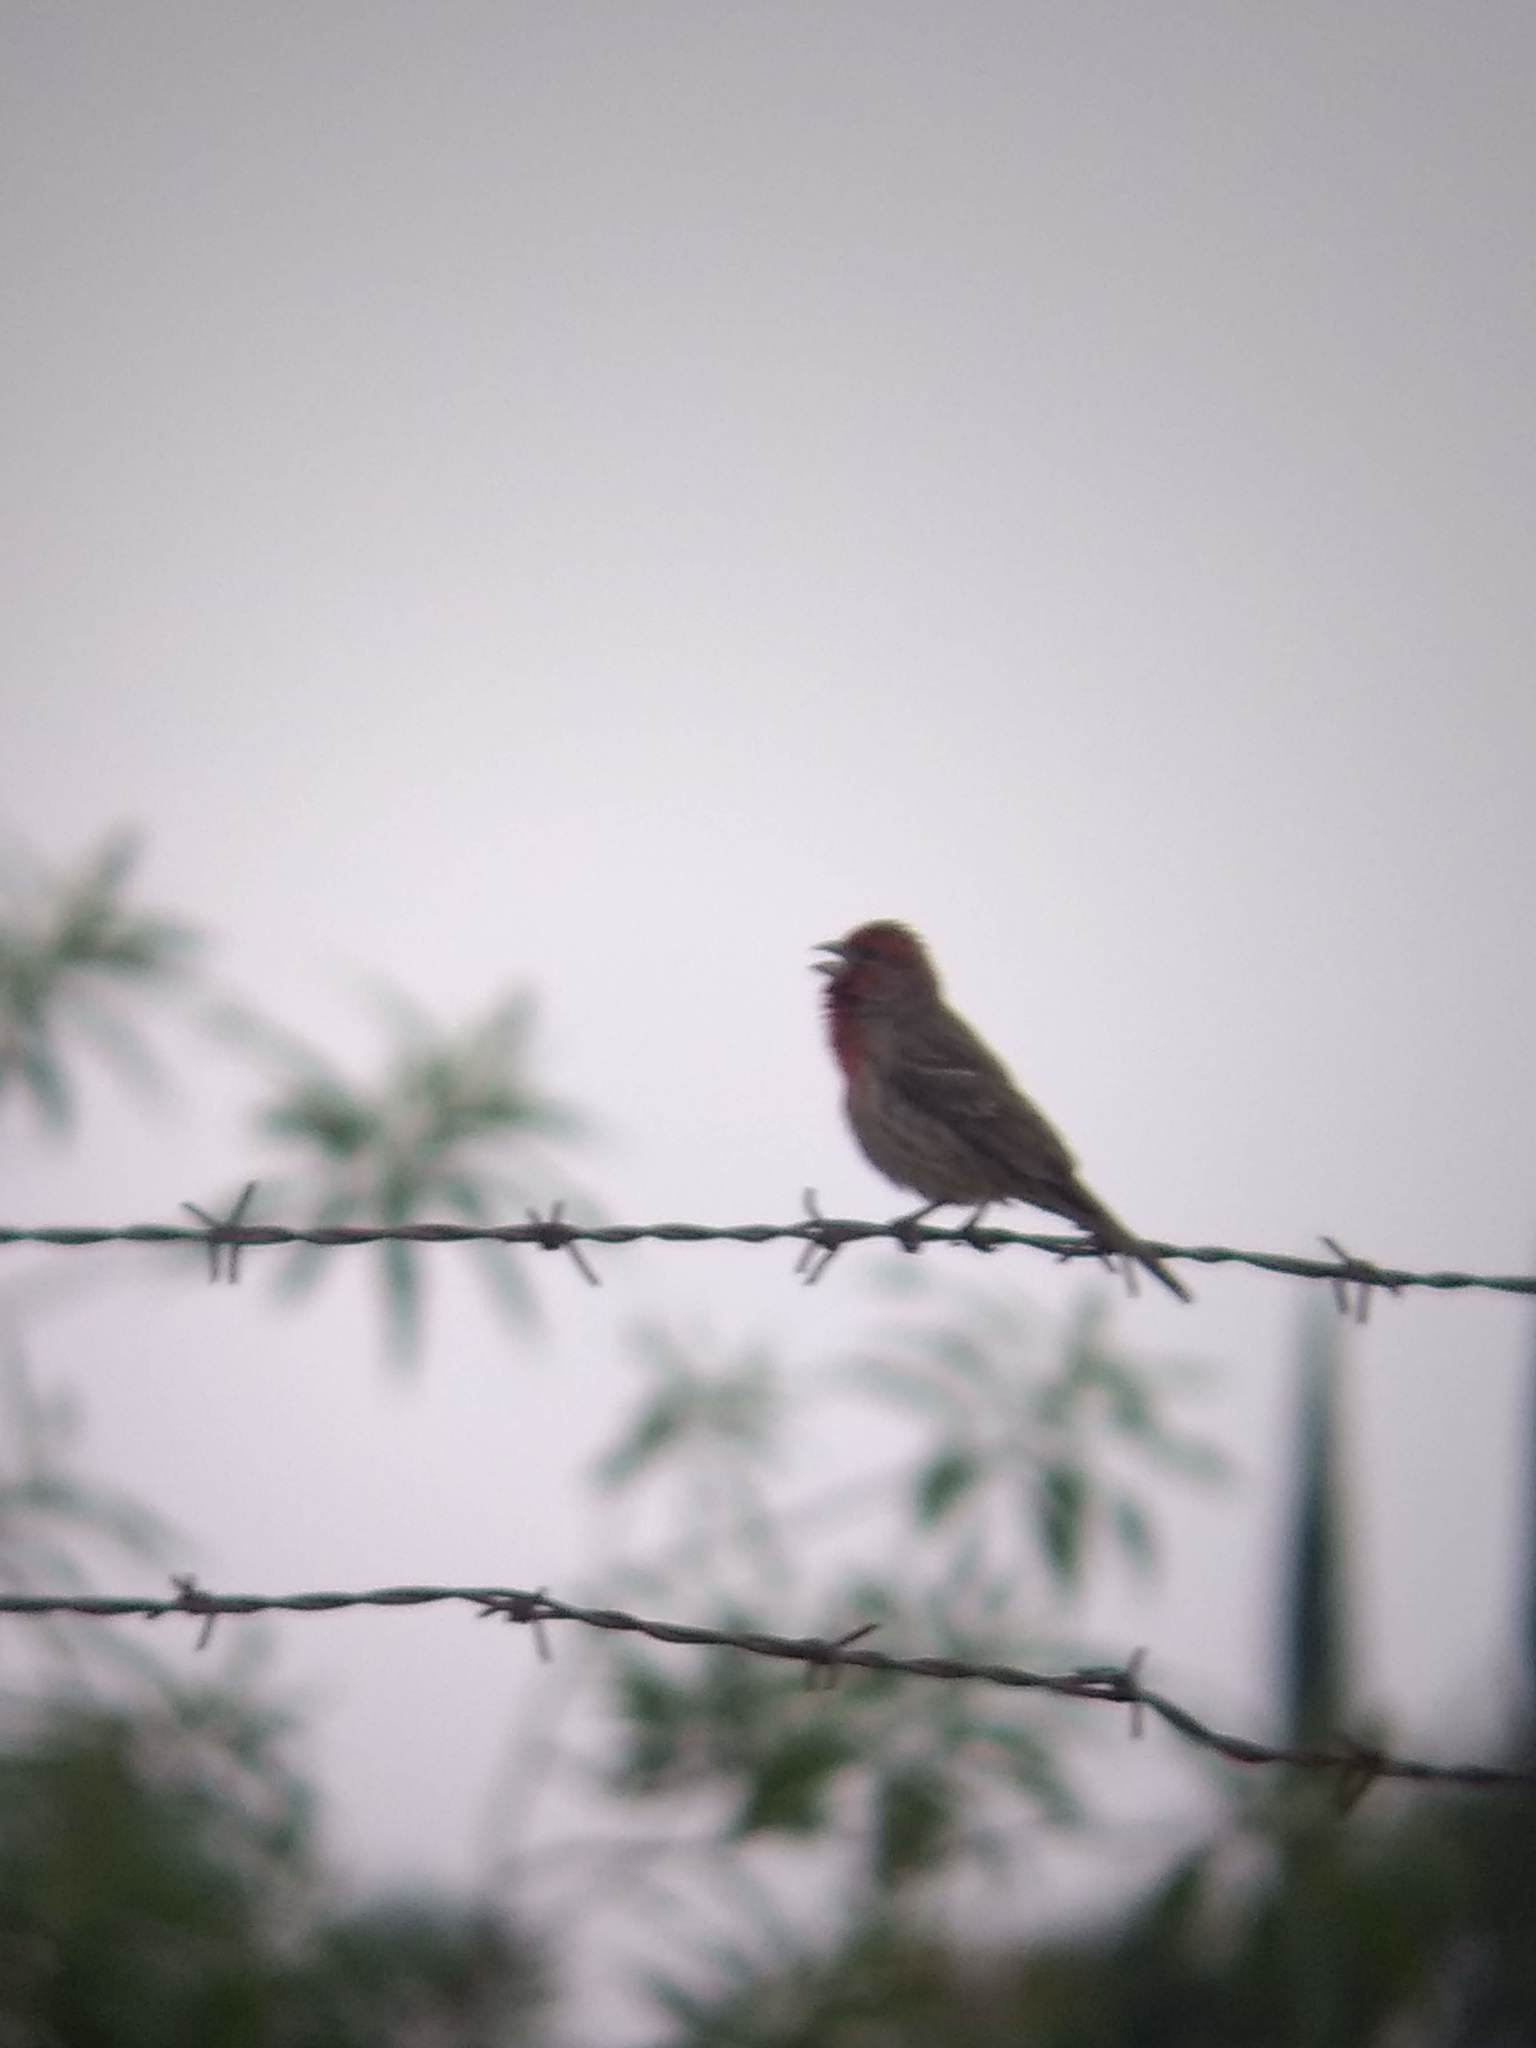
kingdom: Animalia
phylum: Chordata
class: Aves
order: Passeriformes
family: Fringillidae
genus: Haemorhous
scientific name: Haemorhous mexicanus
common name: House finch
